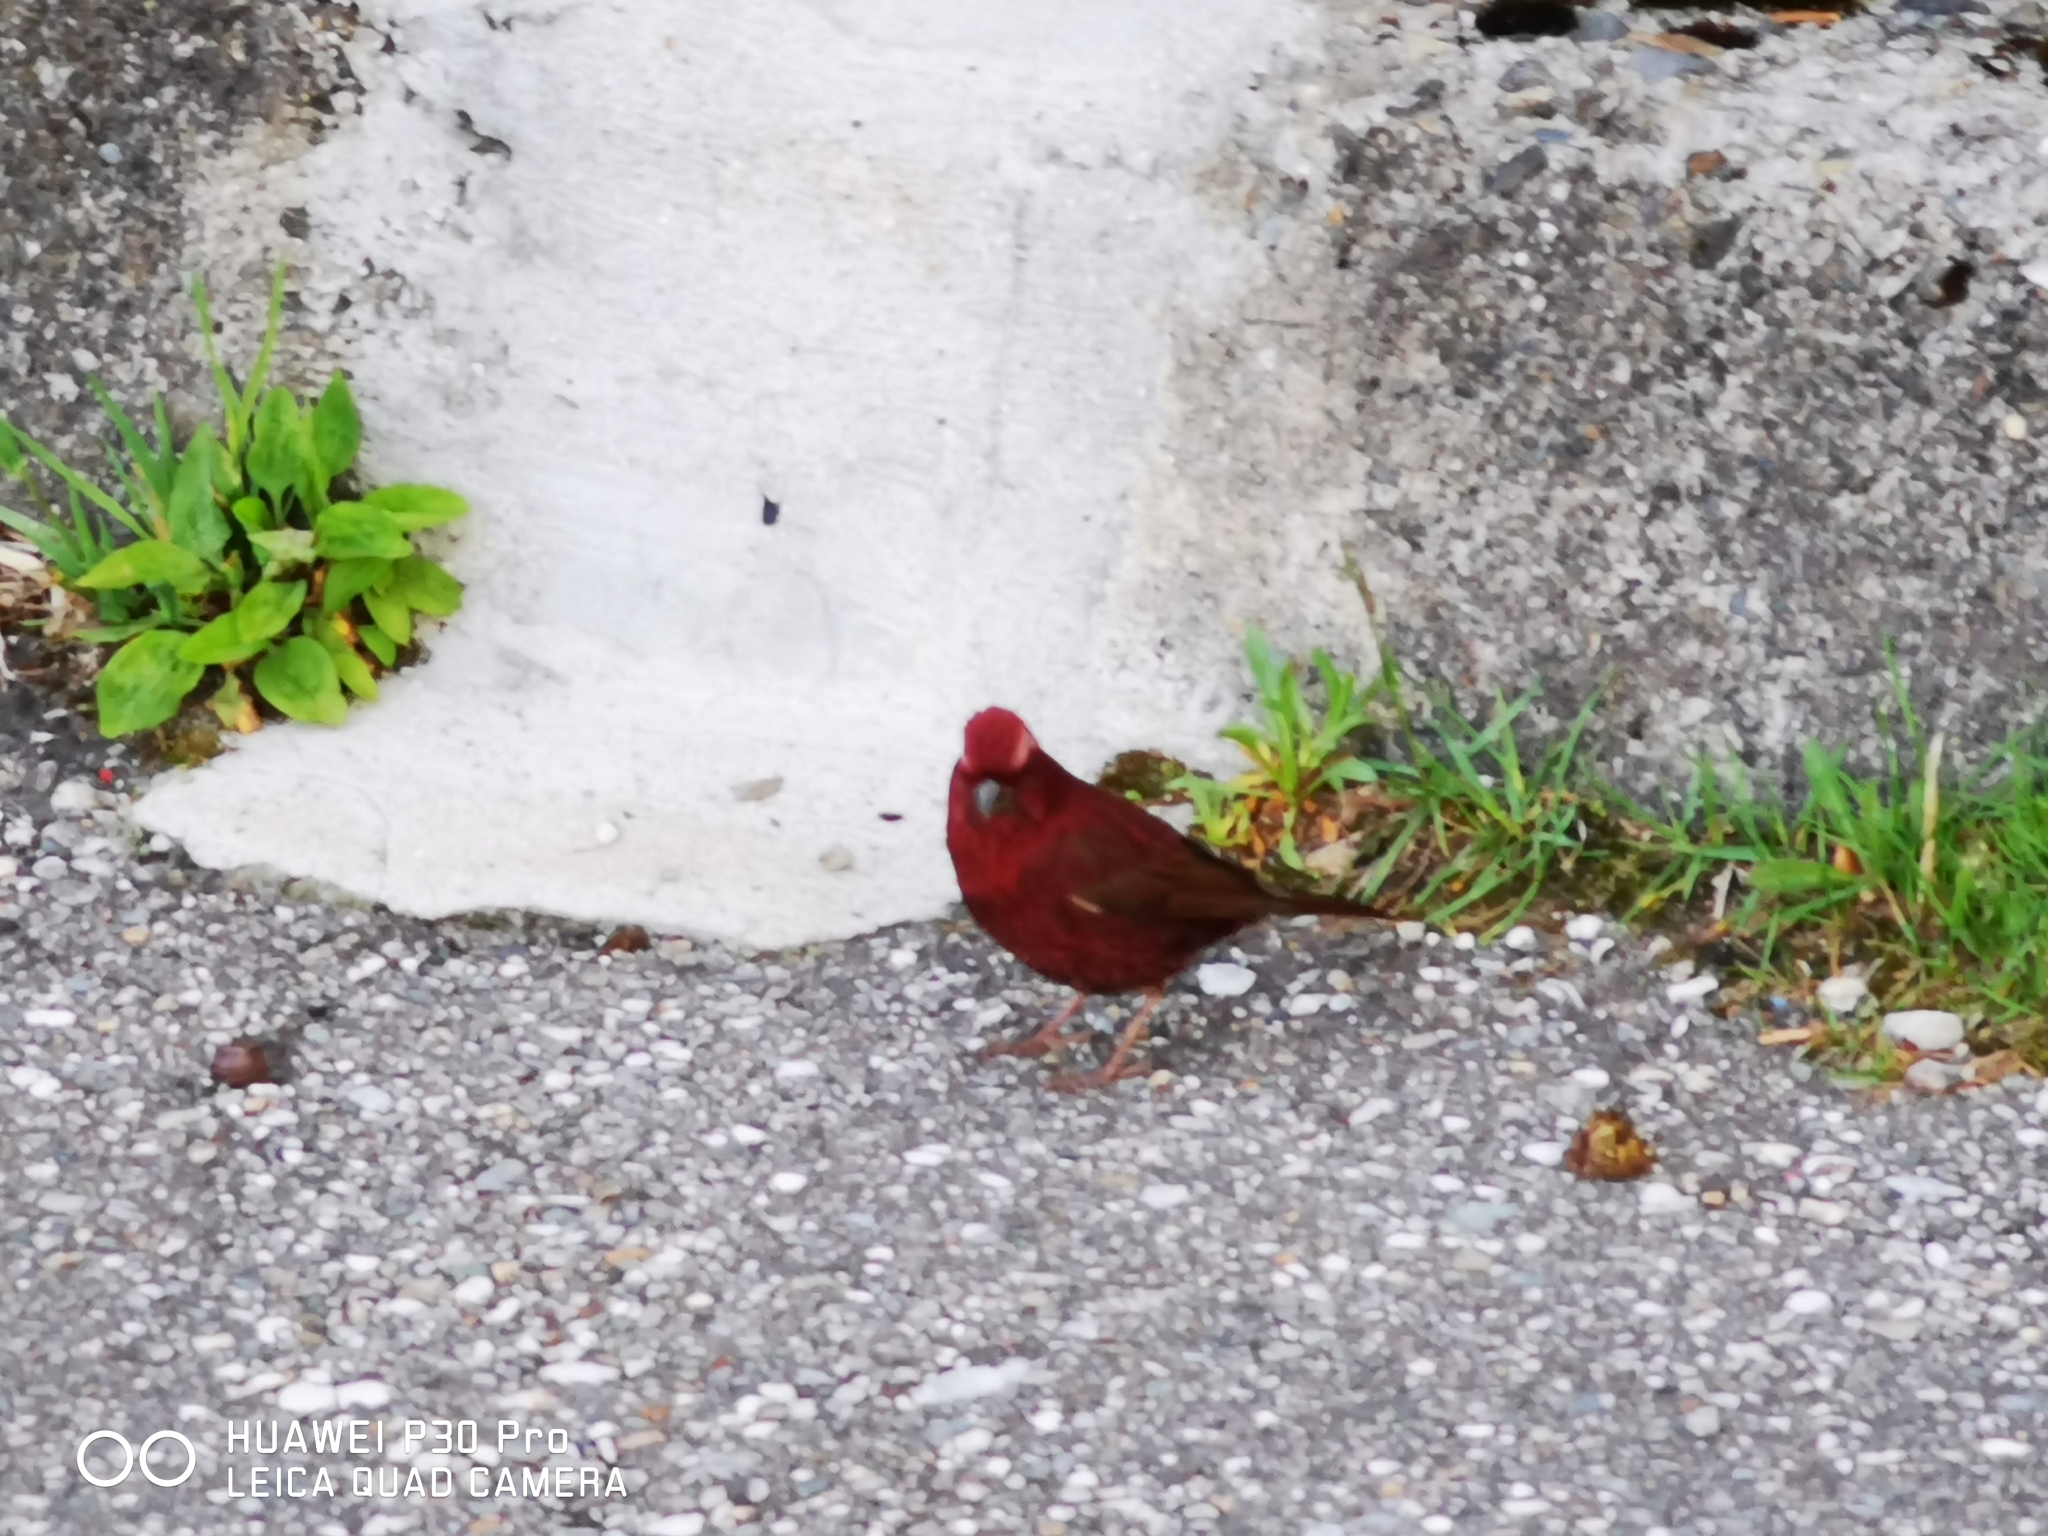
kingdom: Animalia
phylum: Chordata
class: Aves
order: Passeriformes
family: Fringillidae
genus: Carpodacus
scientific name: Carpodacus formosanus
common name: Taiwan rosefinch
